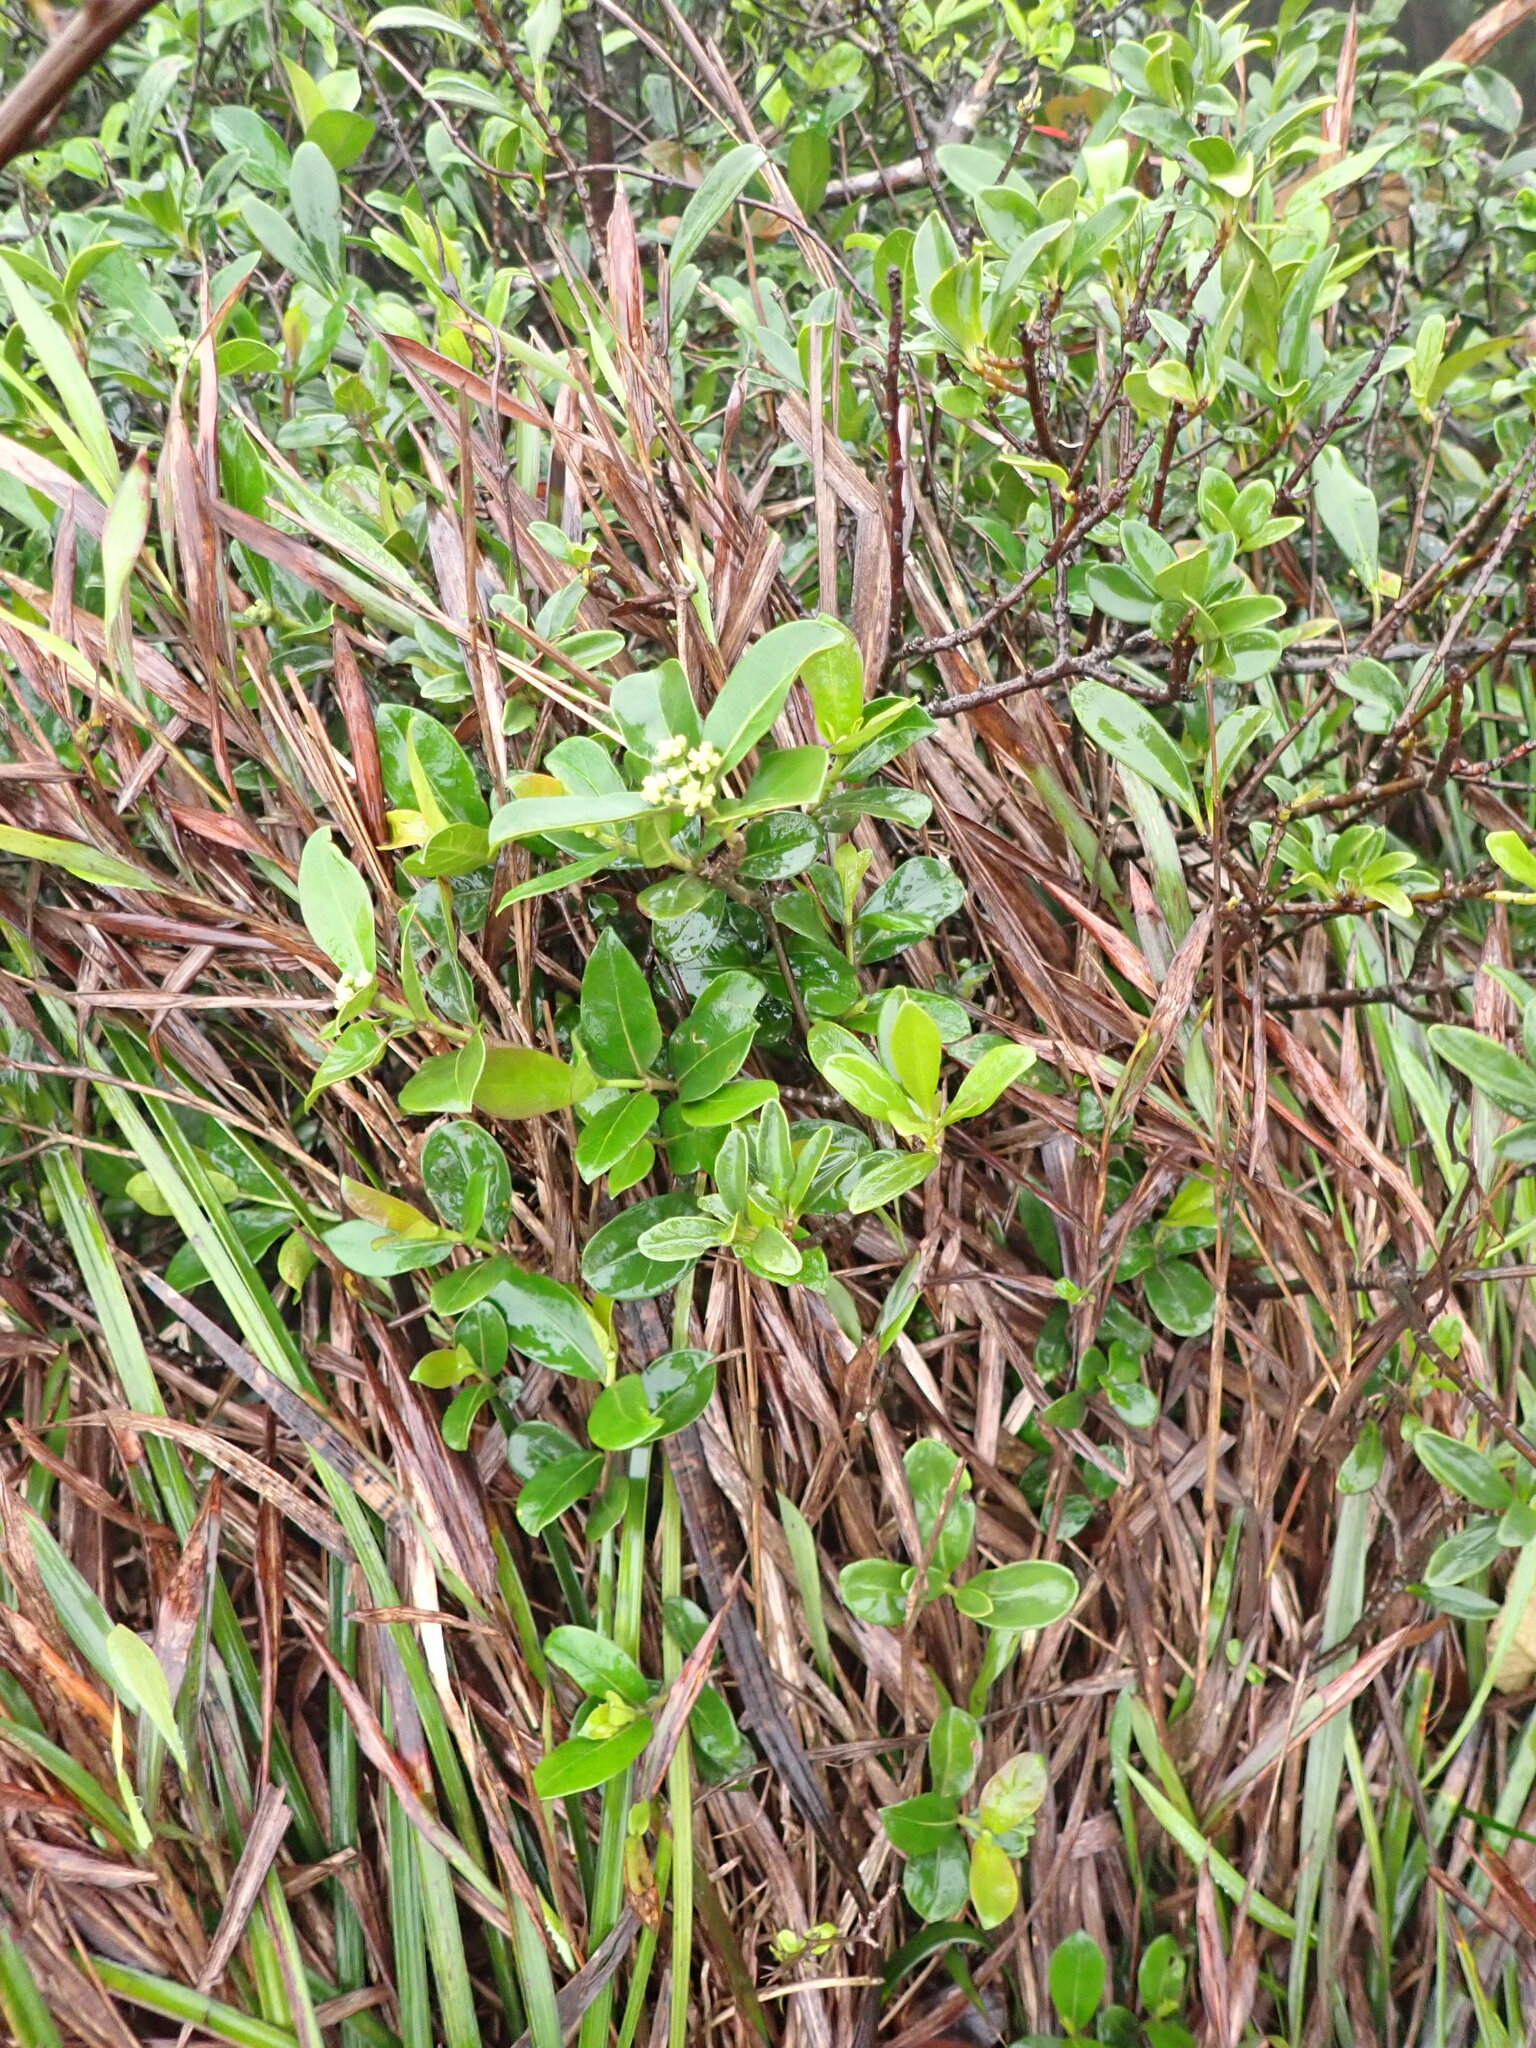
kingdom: Plantae
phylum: Tracheophyta
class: Magnoliopsida
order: Gentianales
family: Rubiaceae
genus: Gynochthodes
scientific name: Gynochthodes parvifolia
